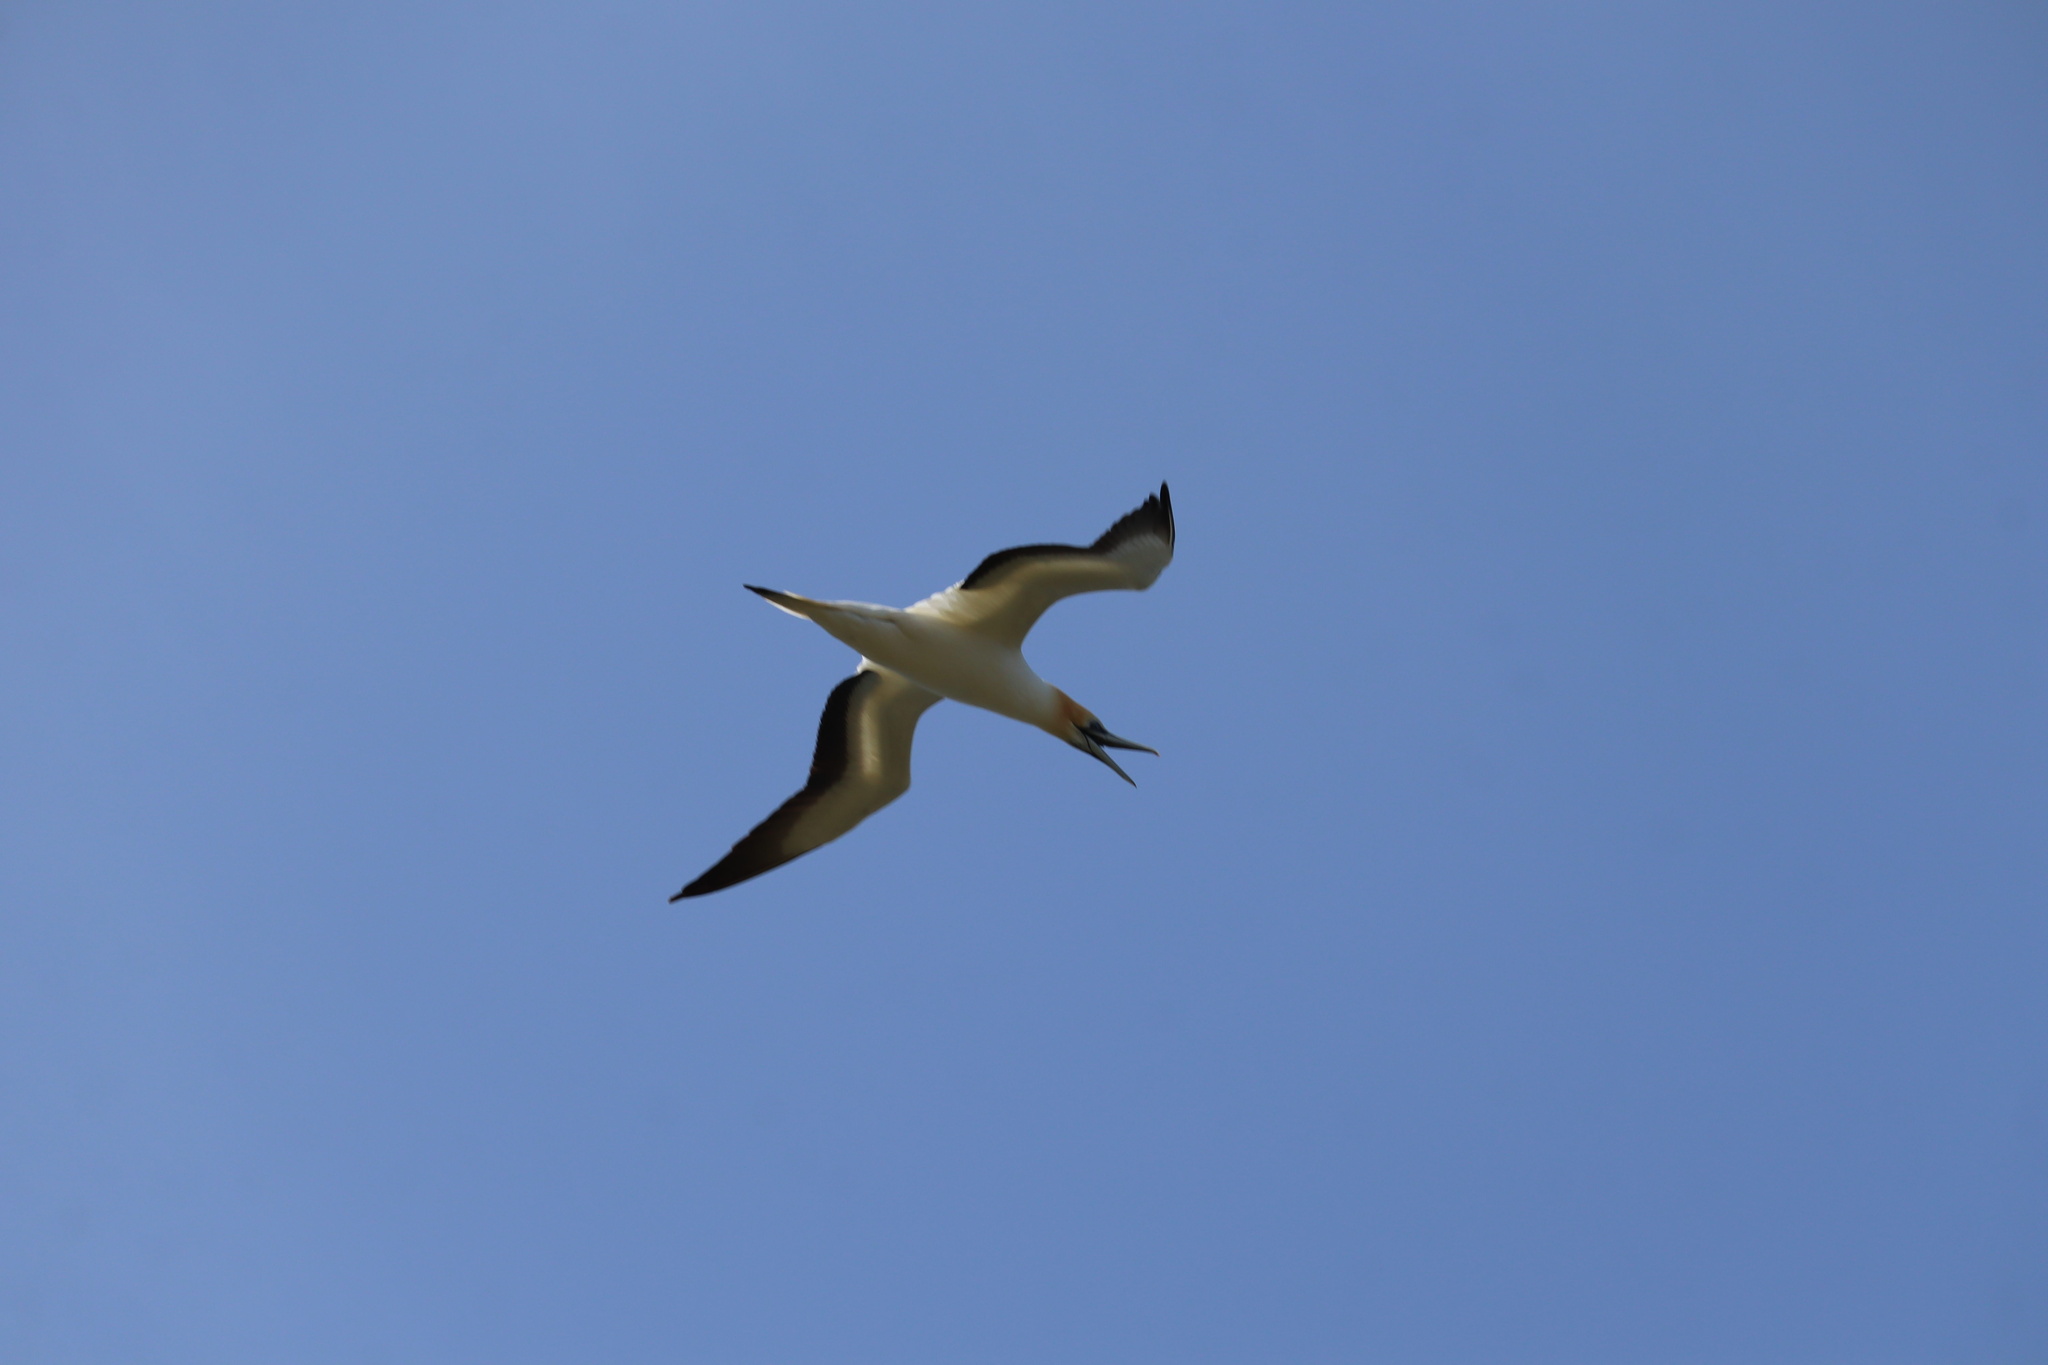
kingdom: Animalia
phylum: Chordata
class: Aves
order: Suliformes
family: Sulidae
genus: Morus
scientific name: Morus serrator
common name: Australasian gannet
